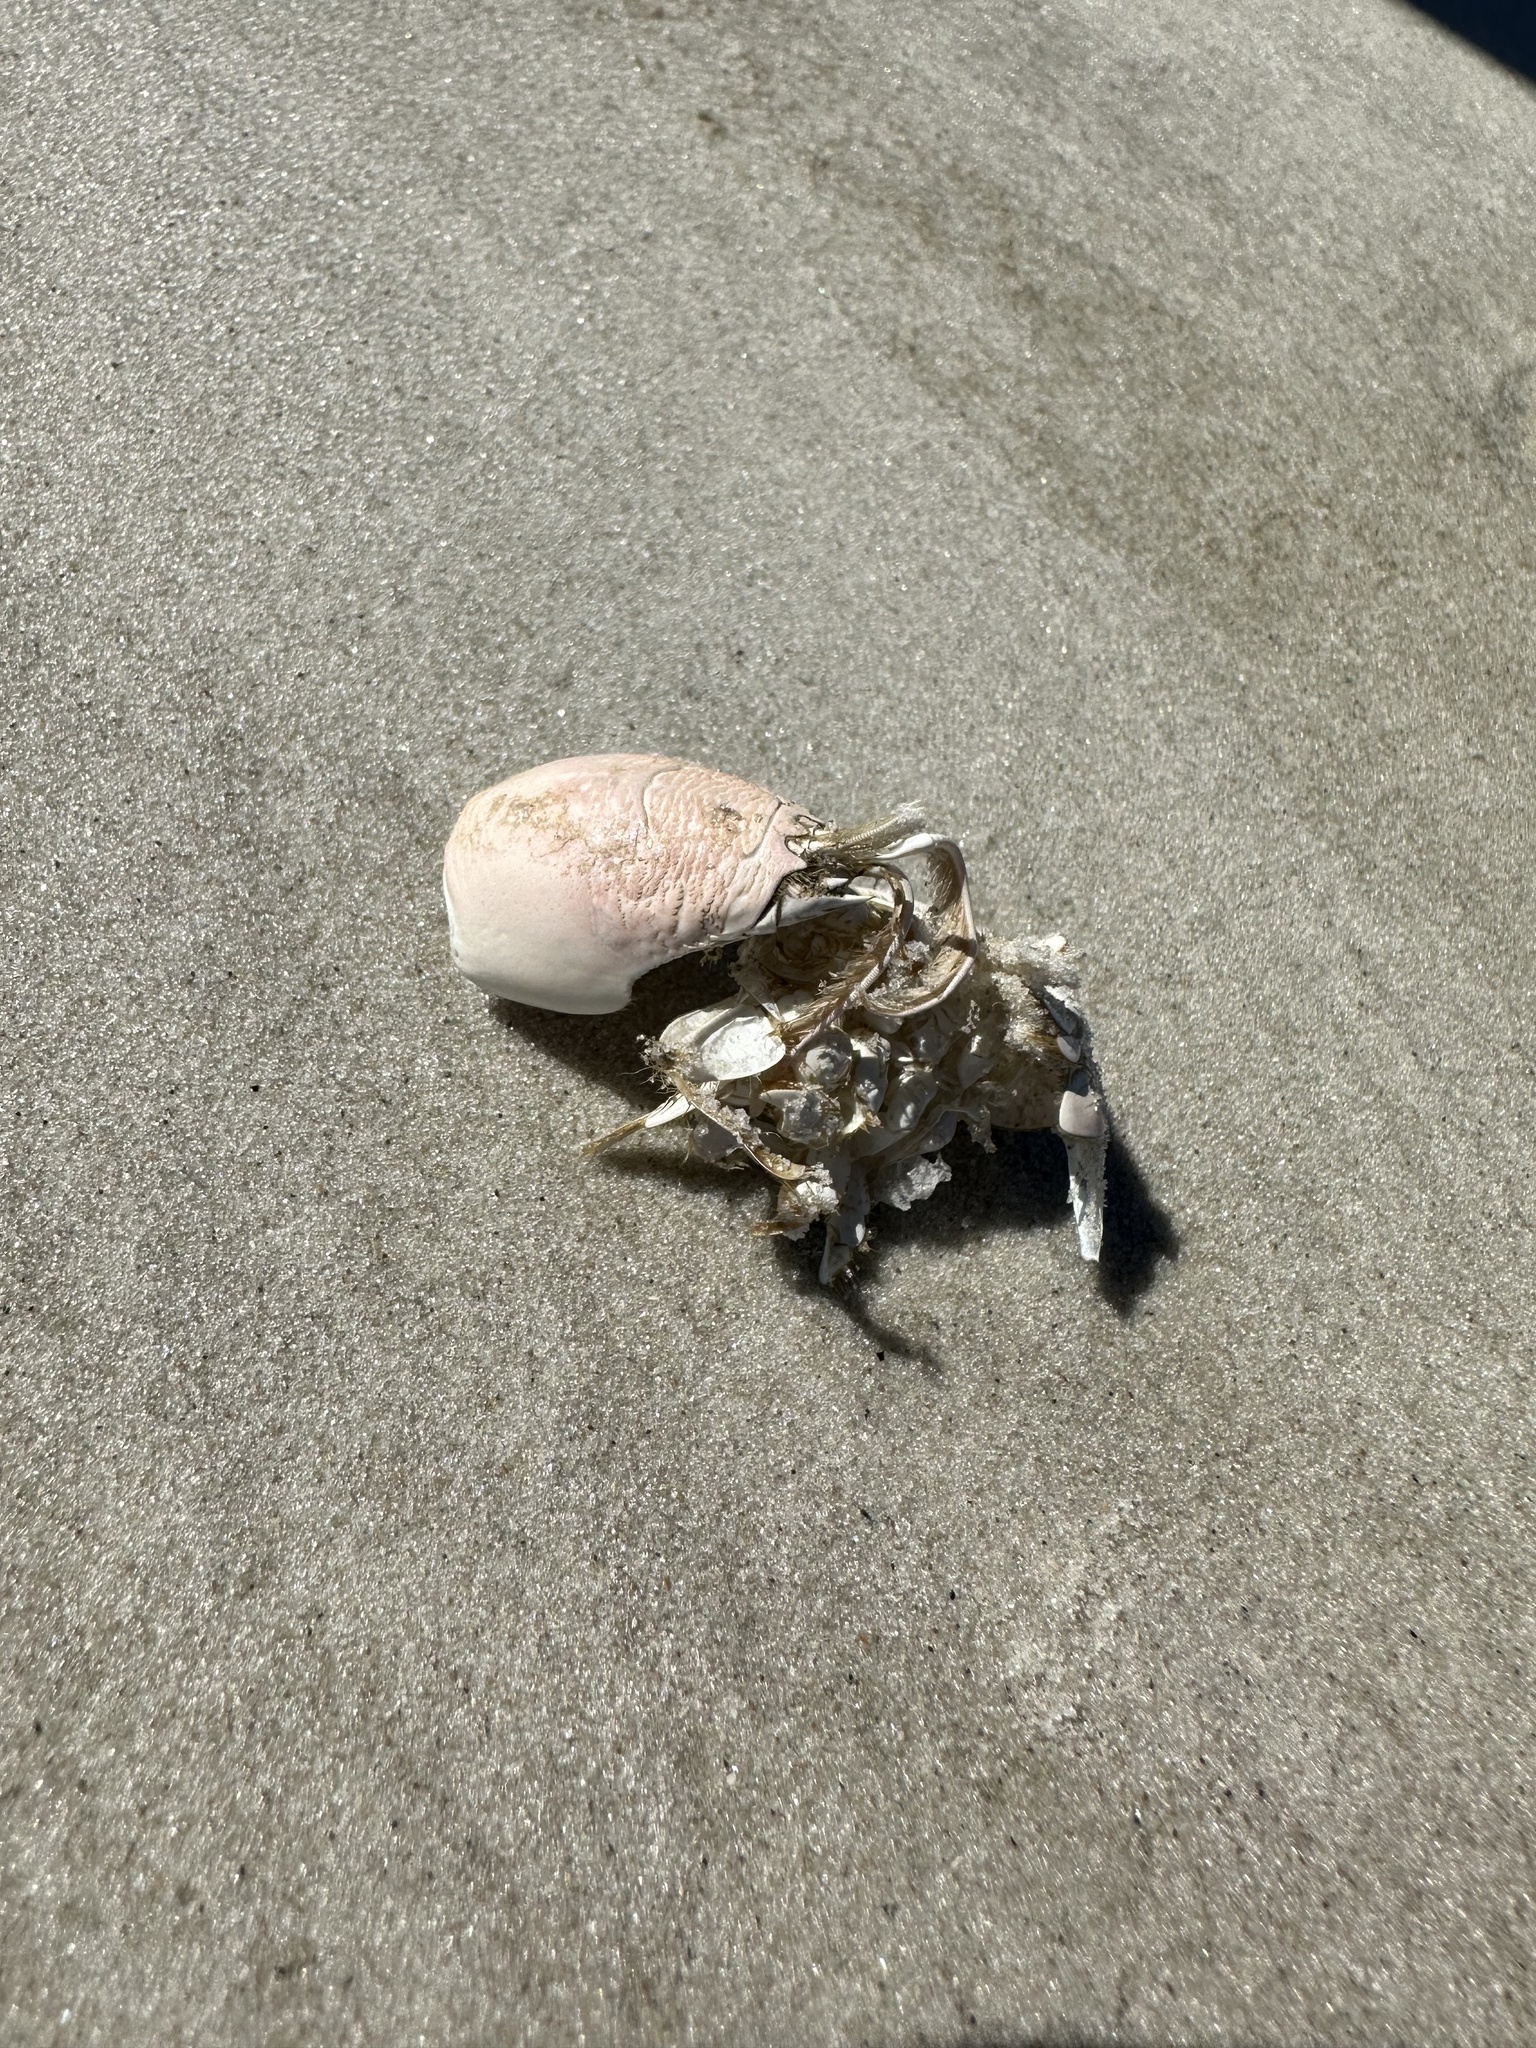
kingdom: Animalia
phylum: Arthropoda
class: Malacostraca
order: Decapoda
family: Hippidae
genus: Emerita
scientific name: Emerita talpoida
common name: Atlantic sand crab
